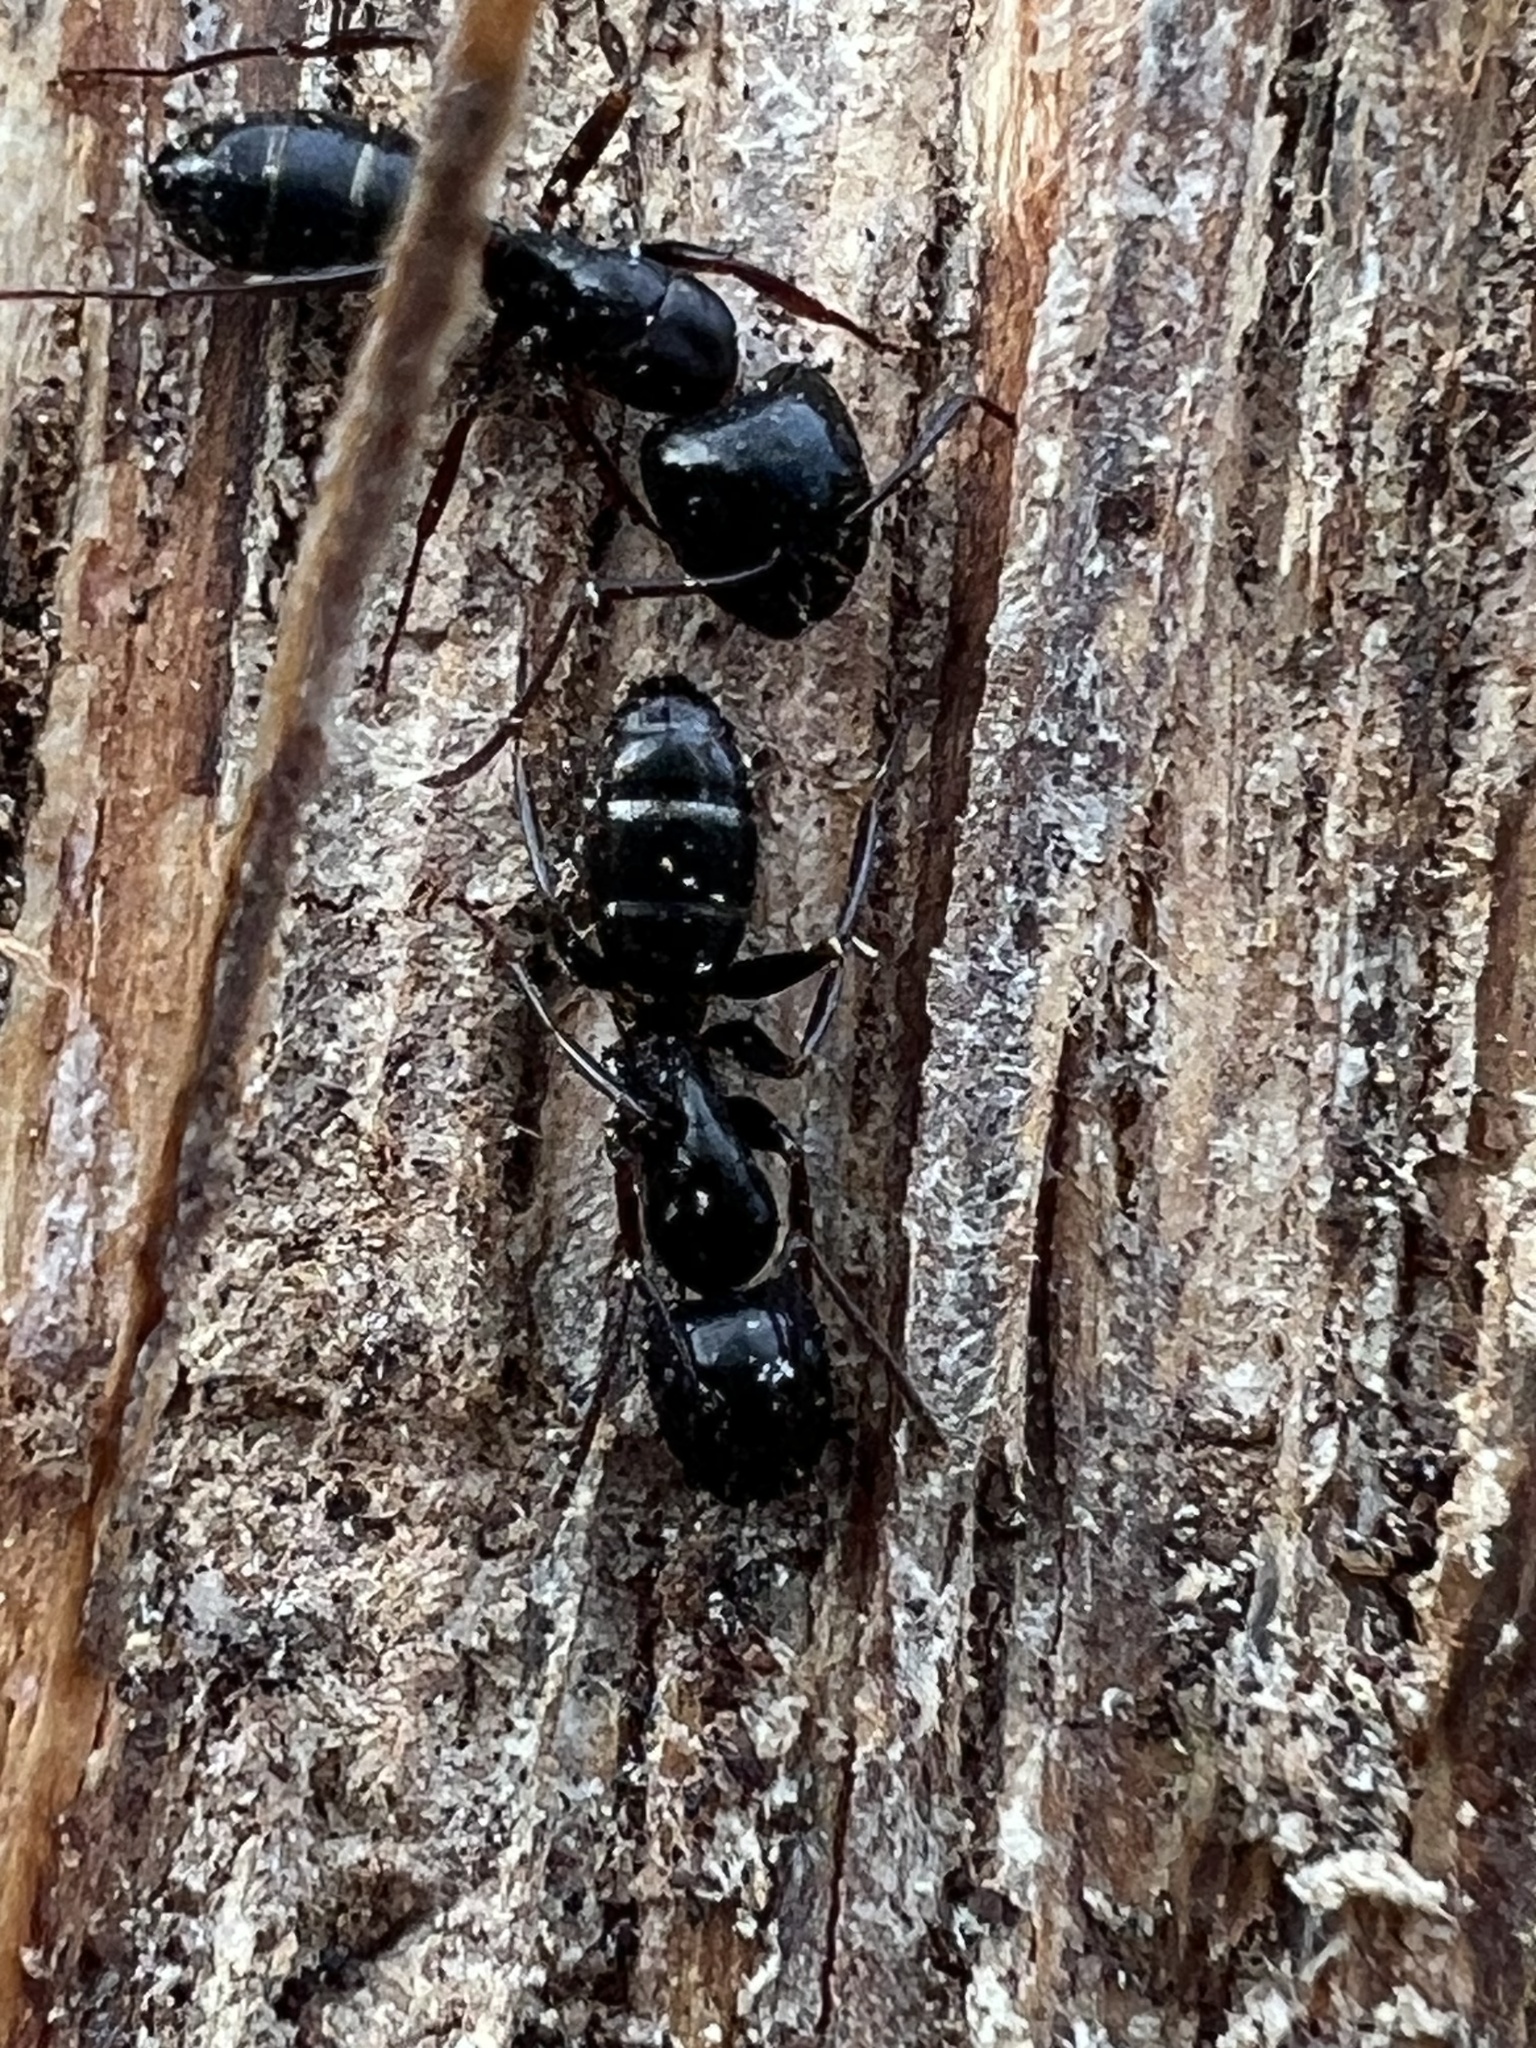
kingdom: Animalia
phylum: Arthropoda
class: Insecta
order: Hymenoptera
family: Formicidae
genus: Camponotus
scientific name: Camponotus nearcticus
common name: Smaller carpenter ant
